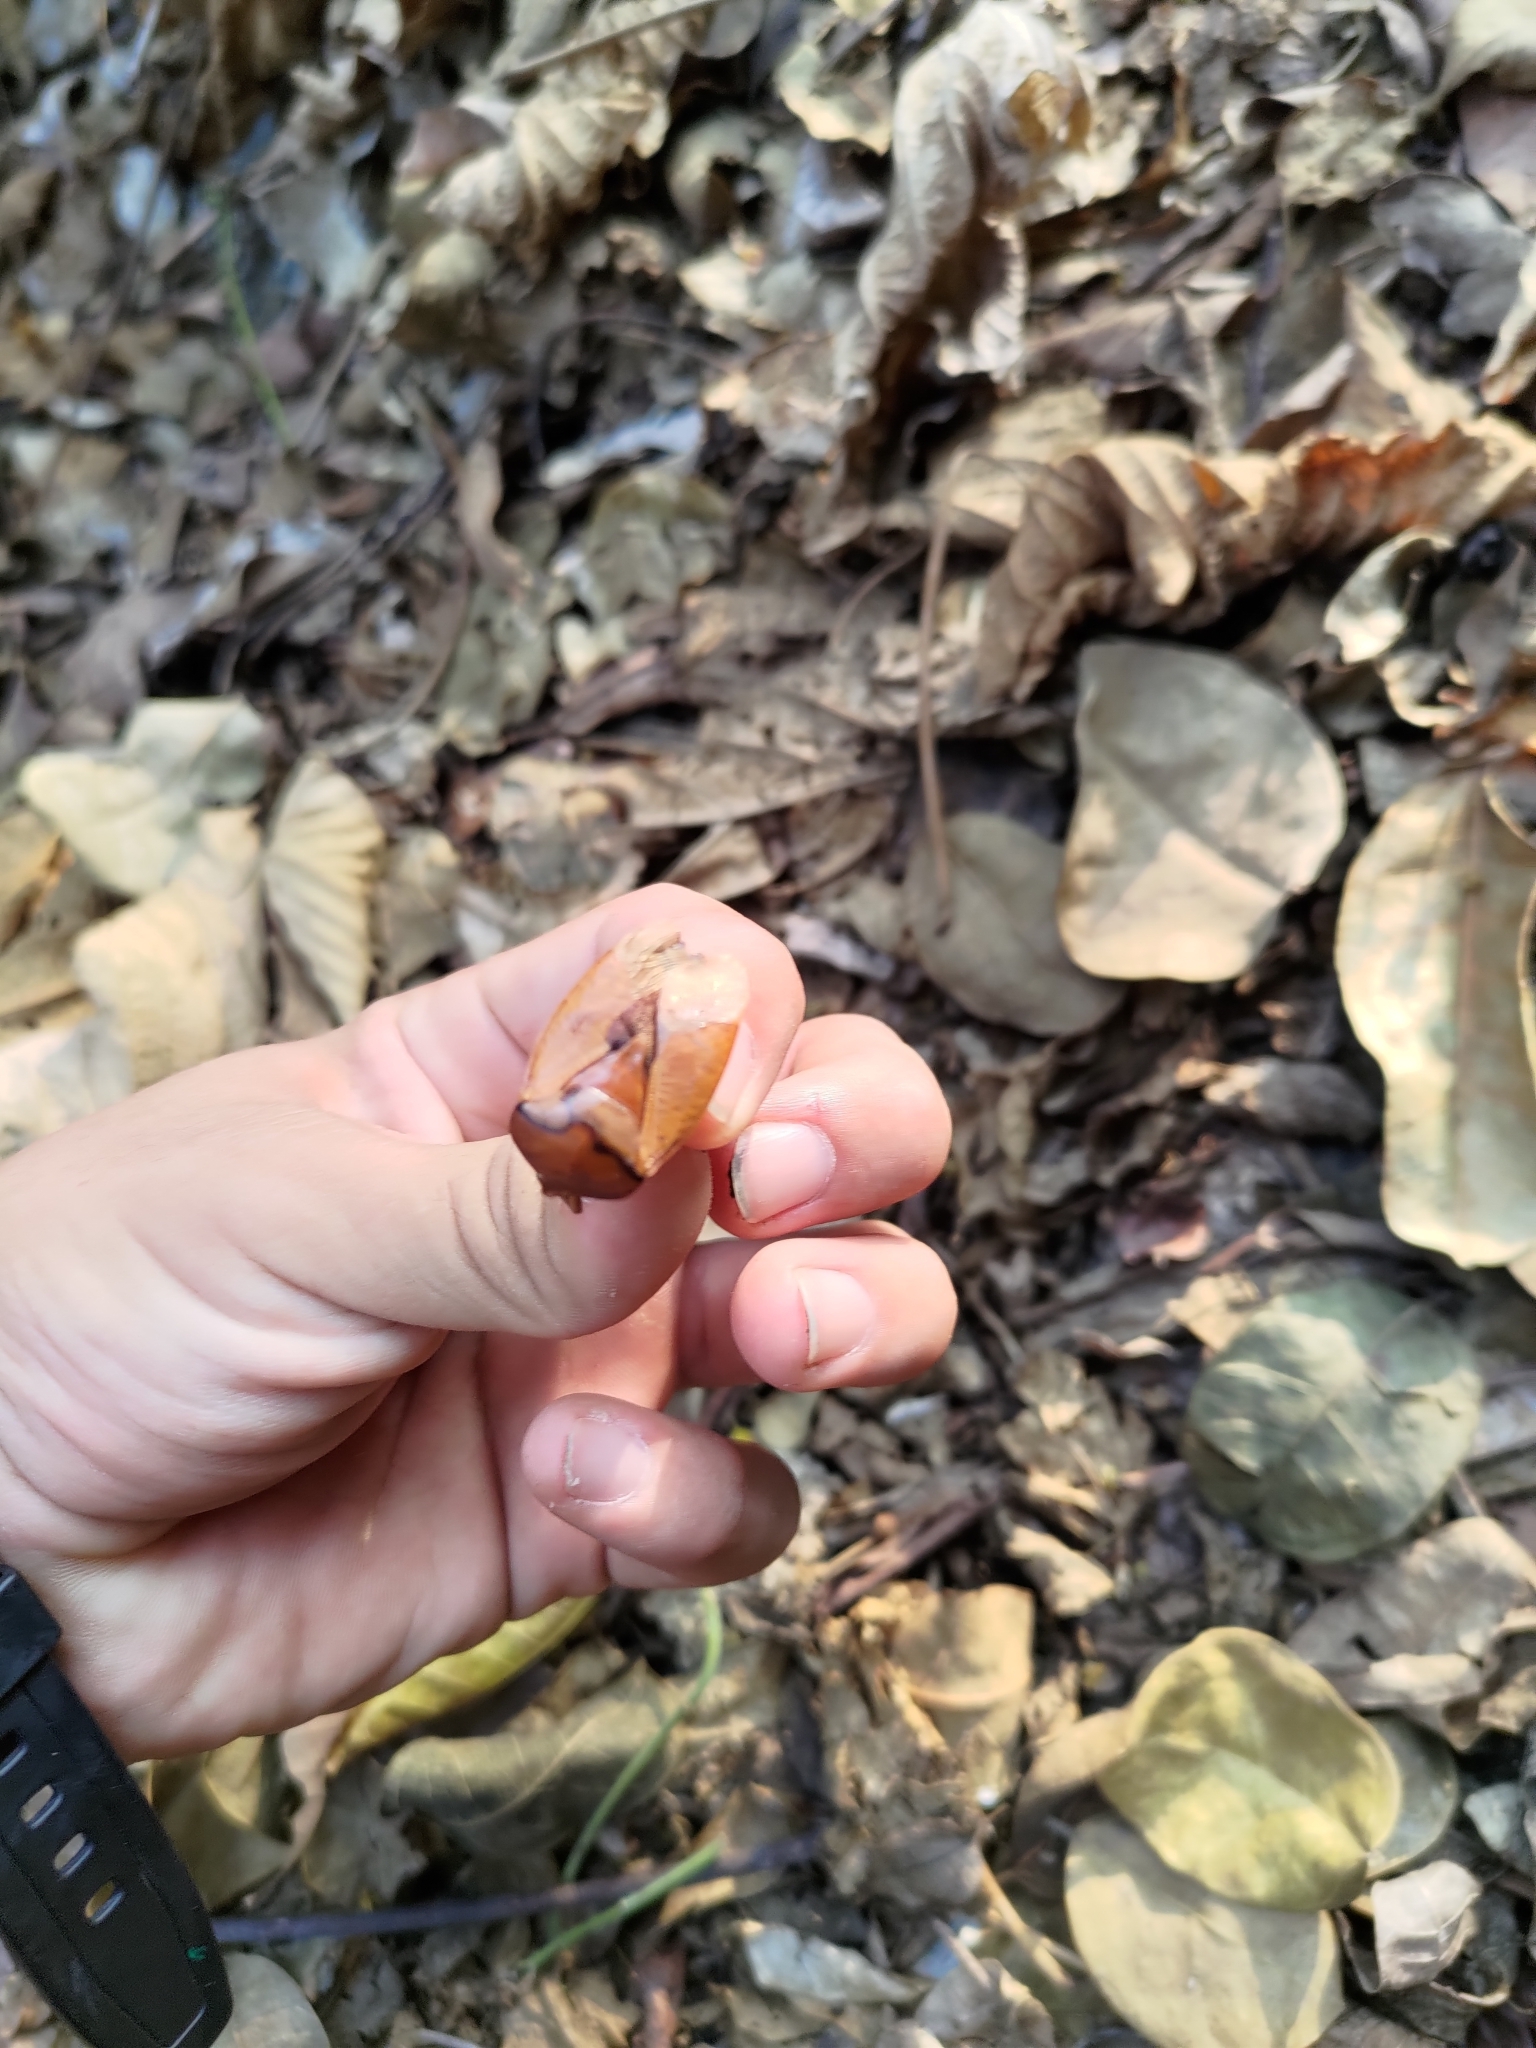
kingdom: Animalia
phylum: Arthropoda
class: Insecta
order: Hemiptera
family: Tessaratomidae
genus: Tessaratoma
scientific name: Tessaratoma papillosa
